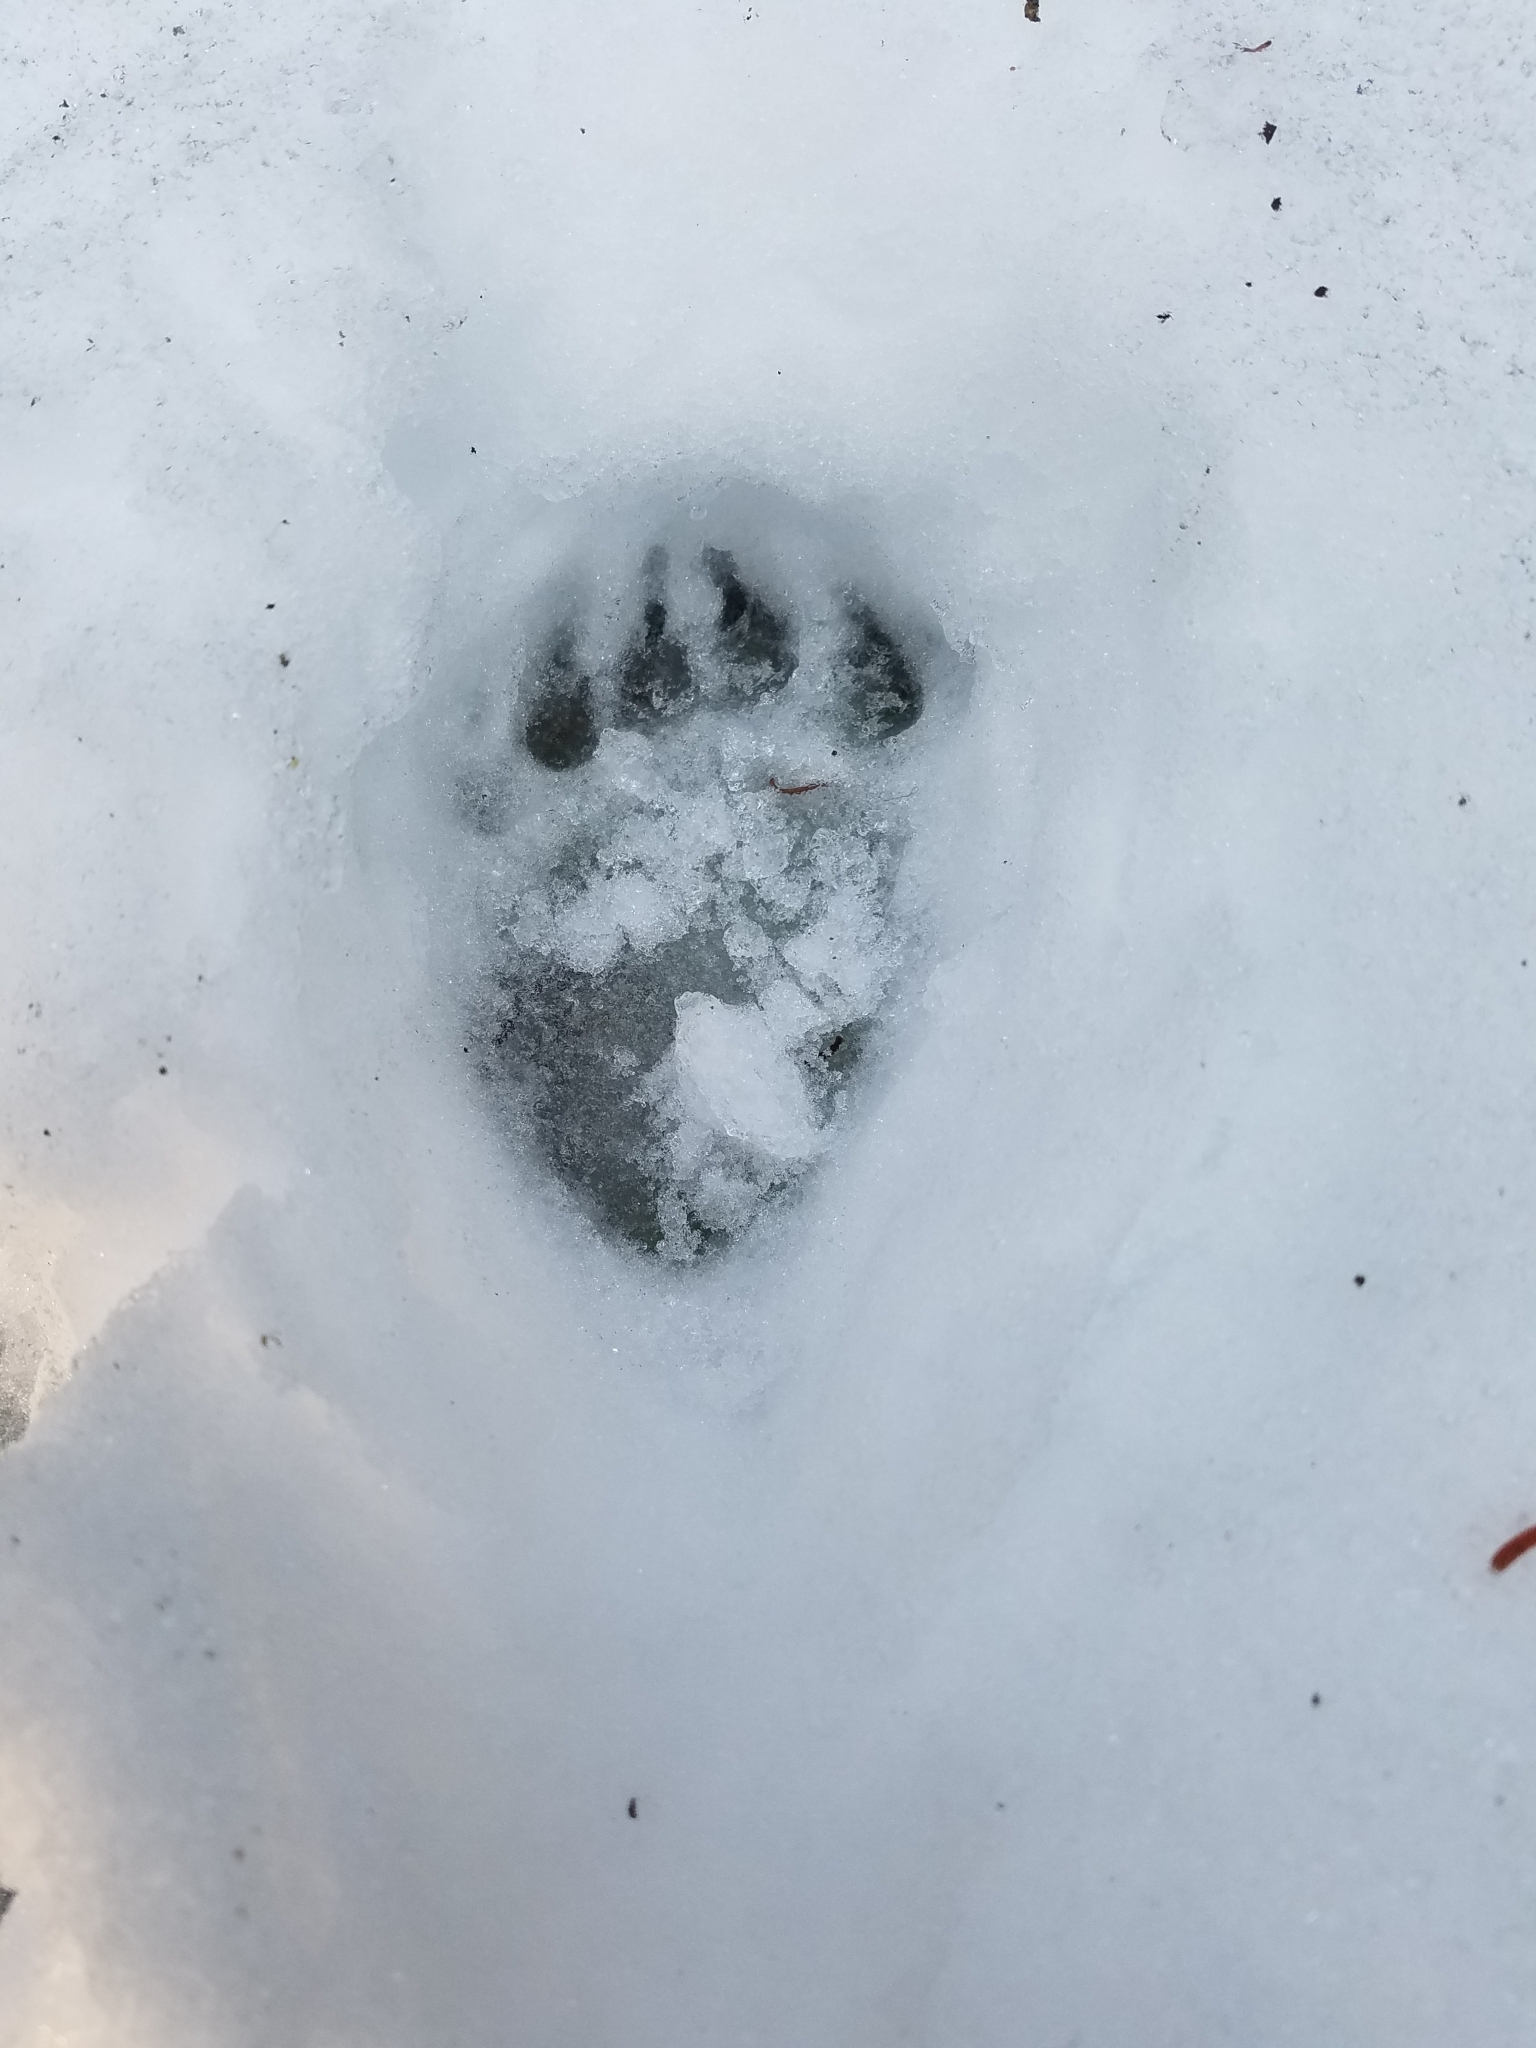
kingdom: Animalia
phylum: Chordata
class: Mammalia
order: Carnivora
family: Ursidae
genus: Ursus
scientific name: Ursus americanus
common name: American black bear
